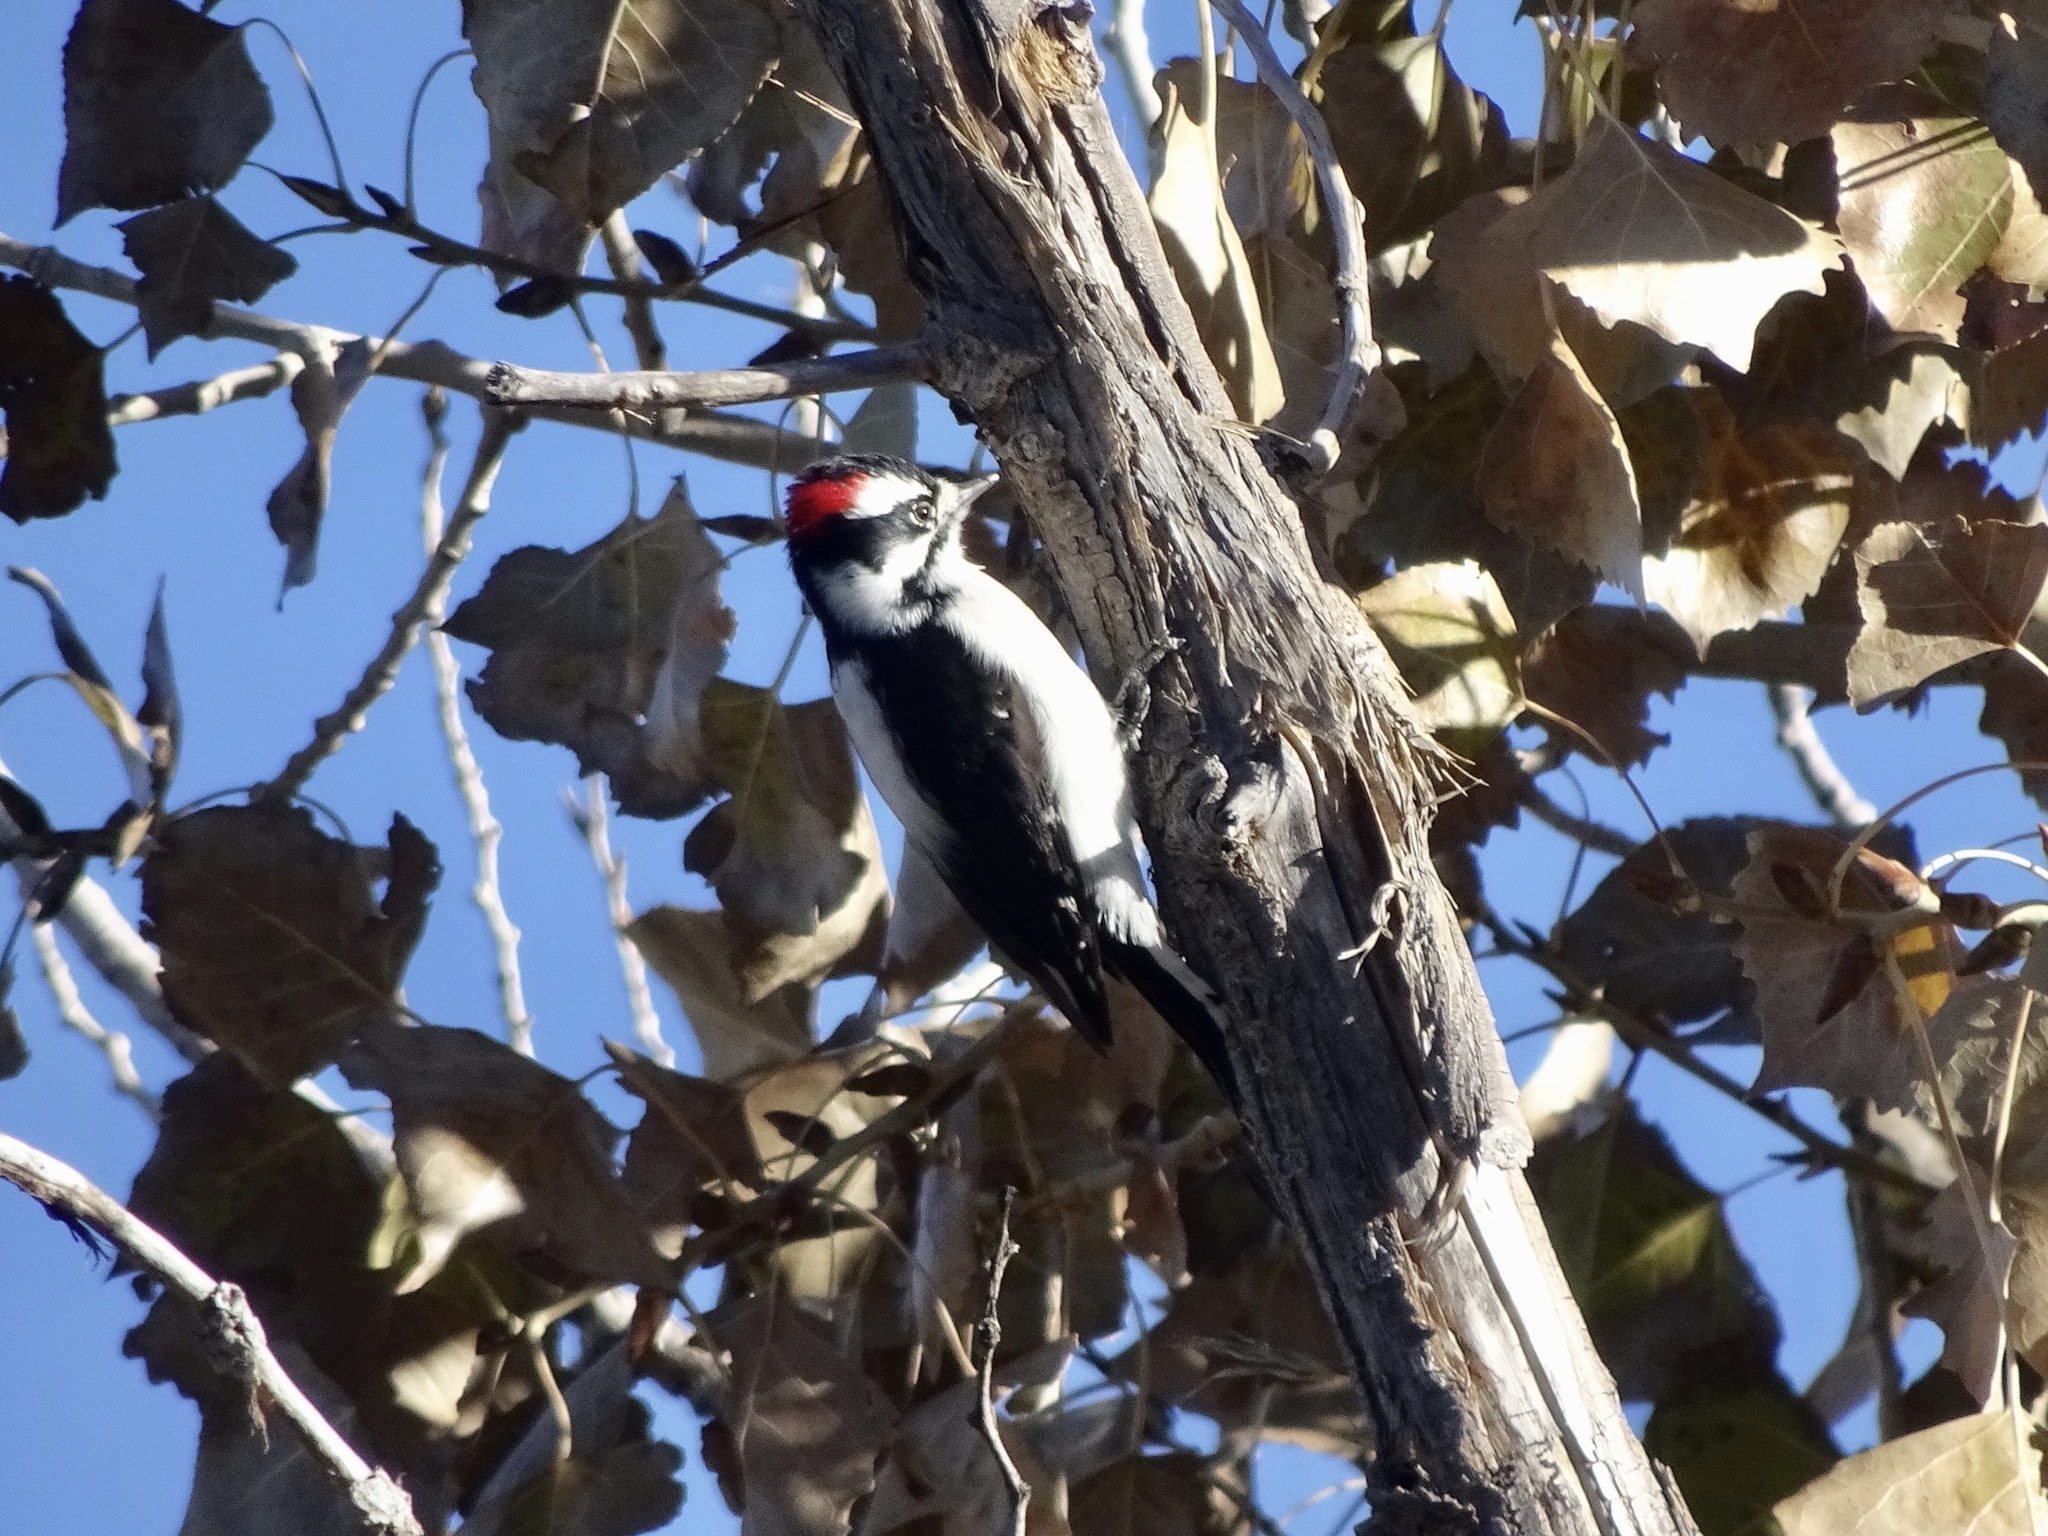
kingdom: Animalia
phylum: Chordata
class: Aves
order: Piciformes
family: Picidae
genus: Dryobates
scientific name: Dryobates pubescens
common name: Downy woodpecker
